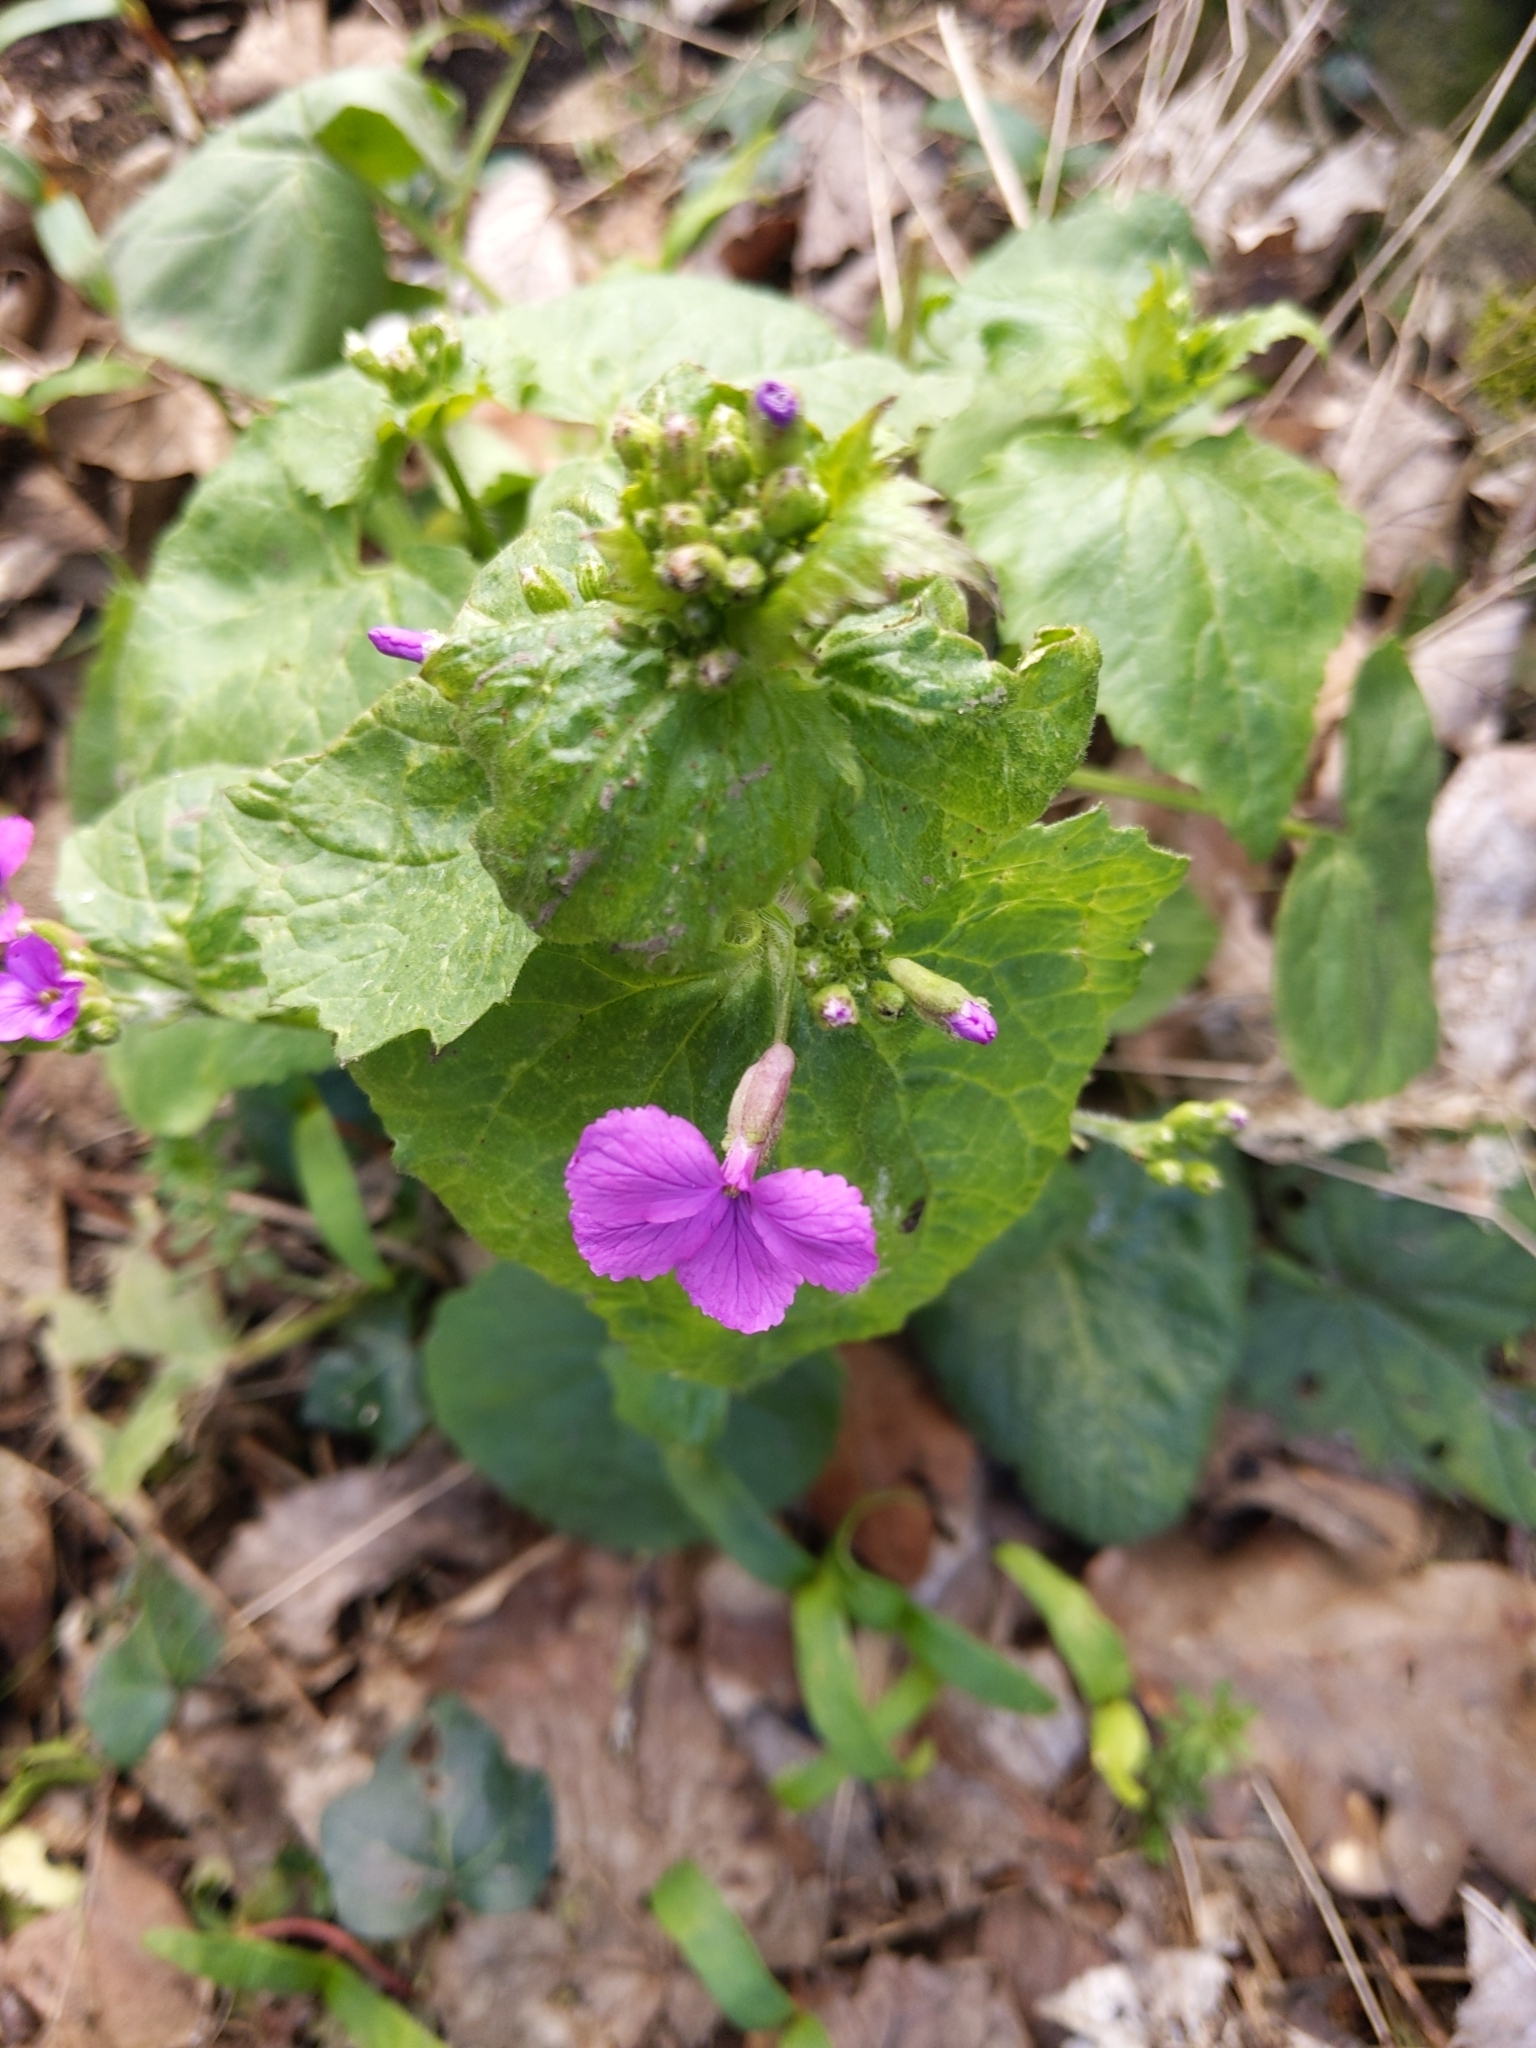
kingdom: Plantae
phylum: Tracheophyta
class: Magnoliopsida
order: Brassicales
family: Brassicaceae
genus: Lunaria
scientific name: Lunaria annua
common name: Honesty
